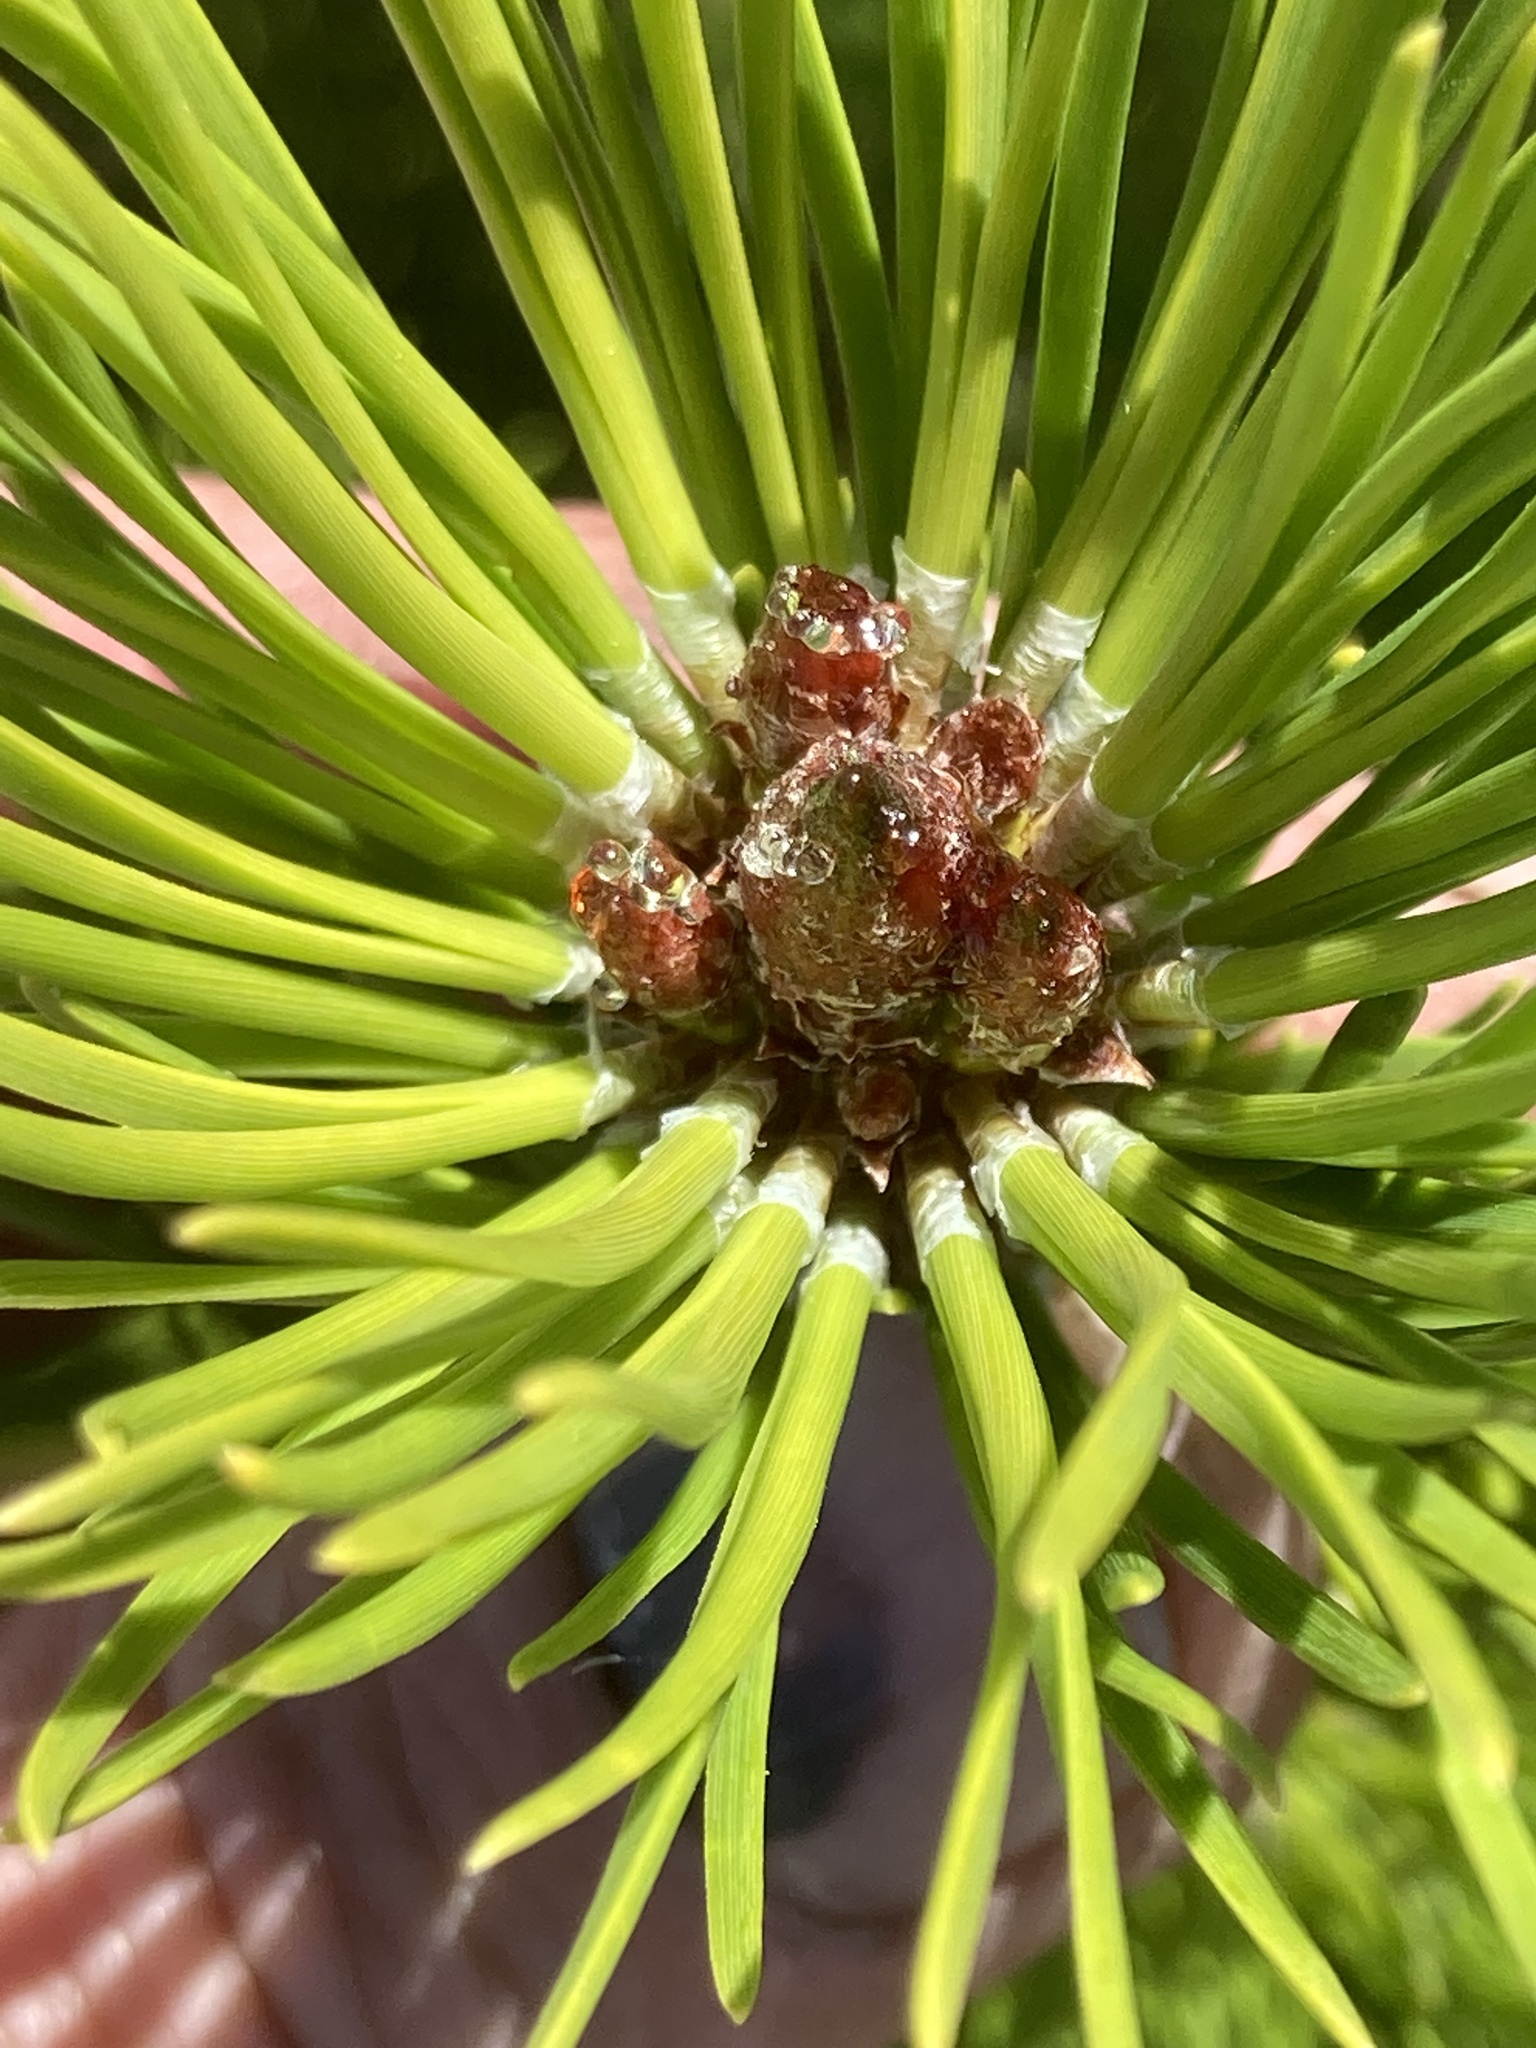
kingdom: Plantae
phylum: Tracheophyta
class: Pinopsida
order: Pinales
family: Pinaceae
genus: Pinus
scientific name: Pinus contorta
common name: Lodgepole pine
